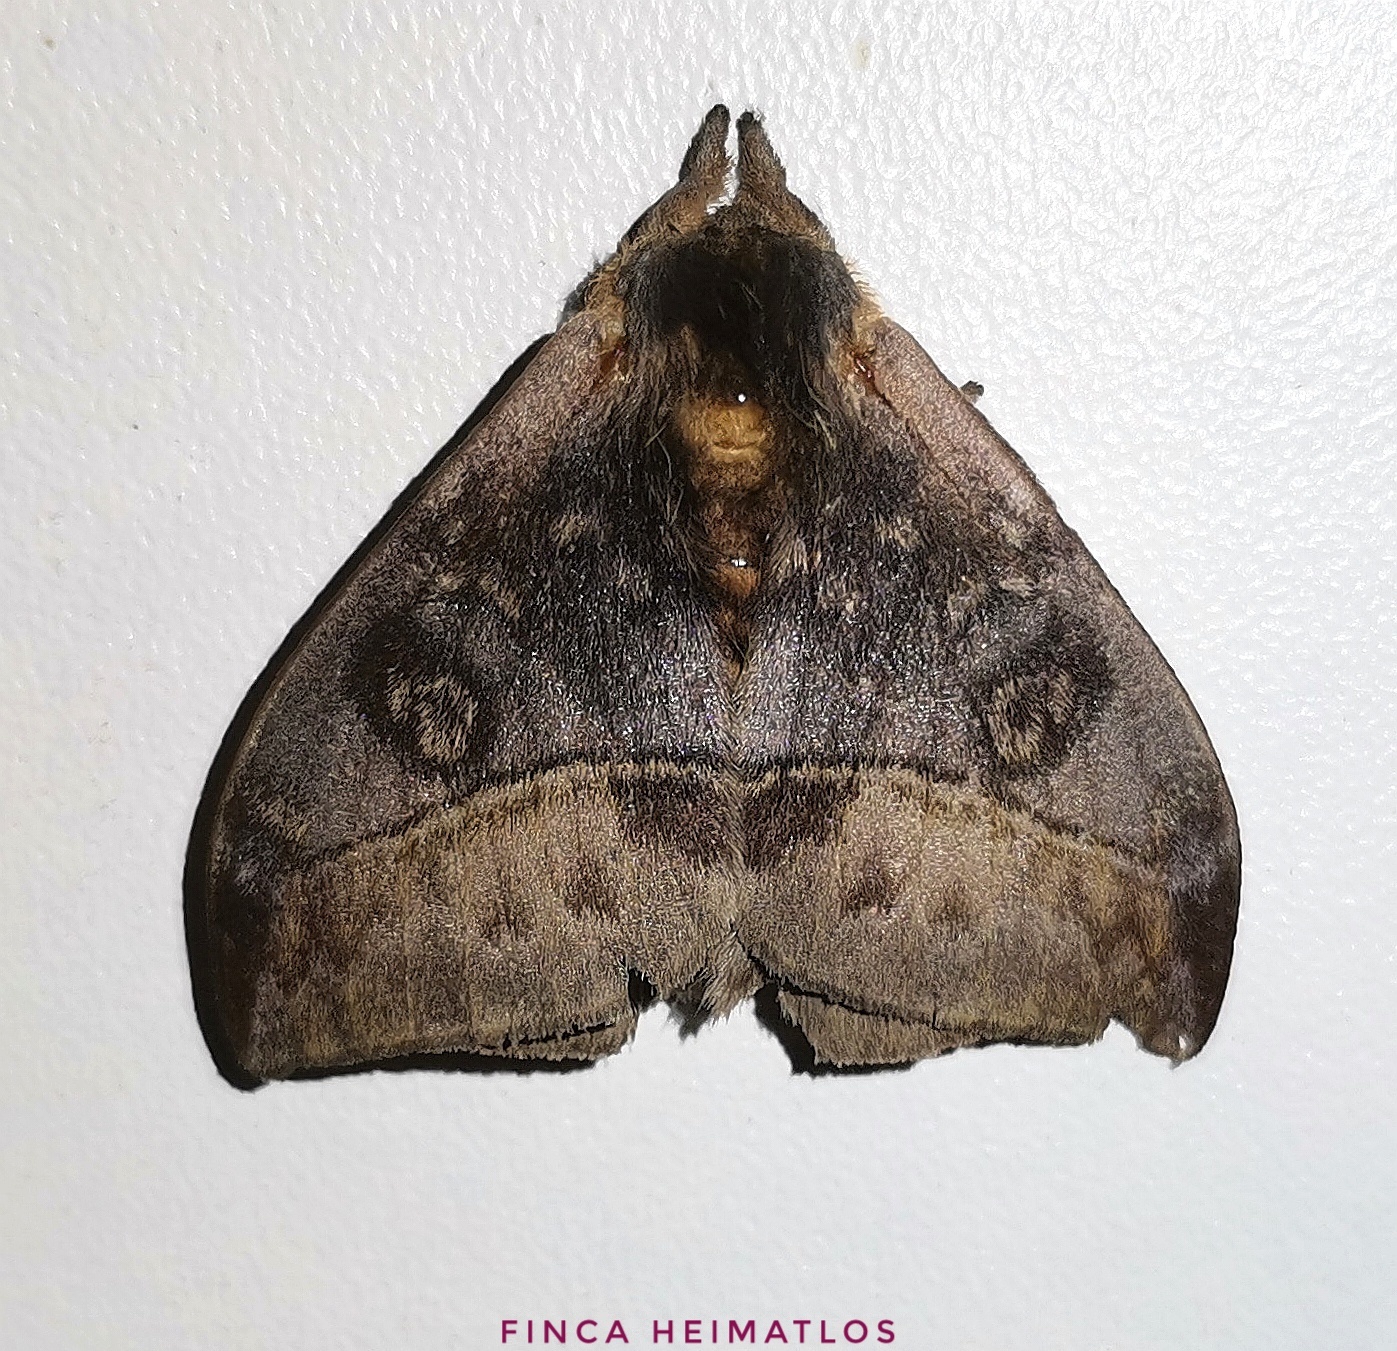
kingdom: Animalia
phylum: Arthropoda
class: Insecta
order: Lepidoptera
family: Saturniidae
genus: Hylesia
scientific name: Hylesia annulata
